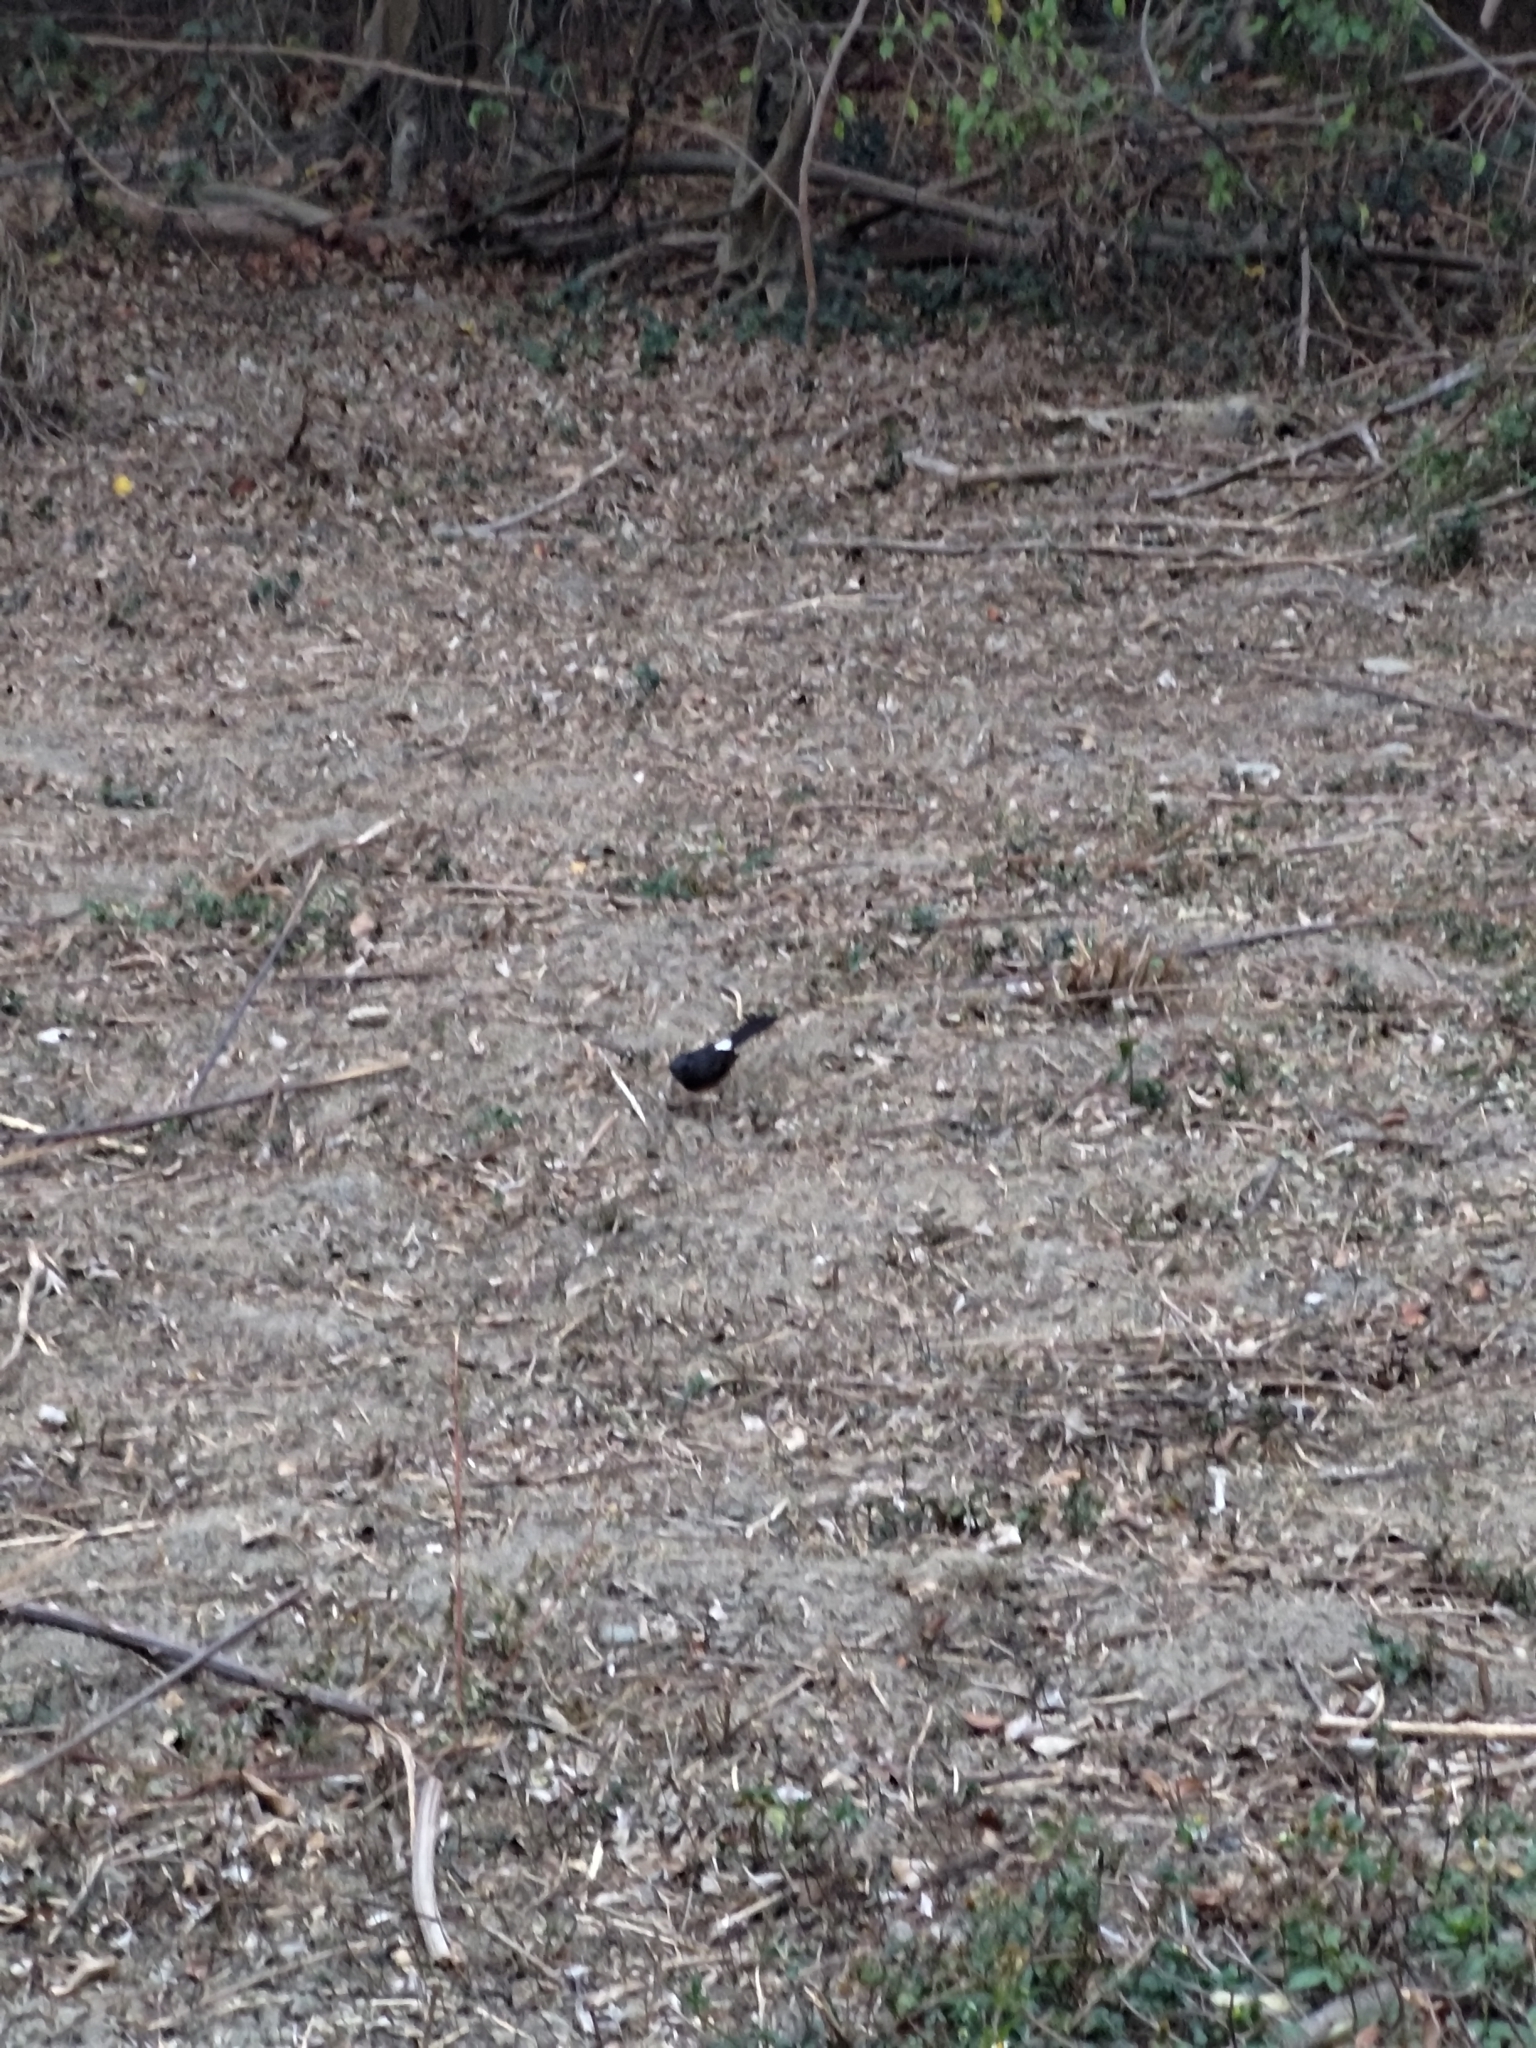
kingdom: Animalia
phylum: Chordata
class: Aves
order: Passeriformes
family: Muscicapidae
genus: Copsychus
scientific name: Copsychus malabaricus
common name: White-rumped shama
